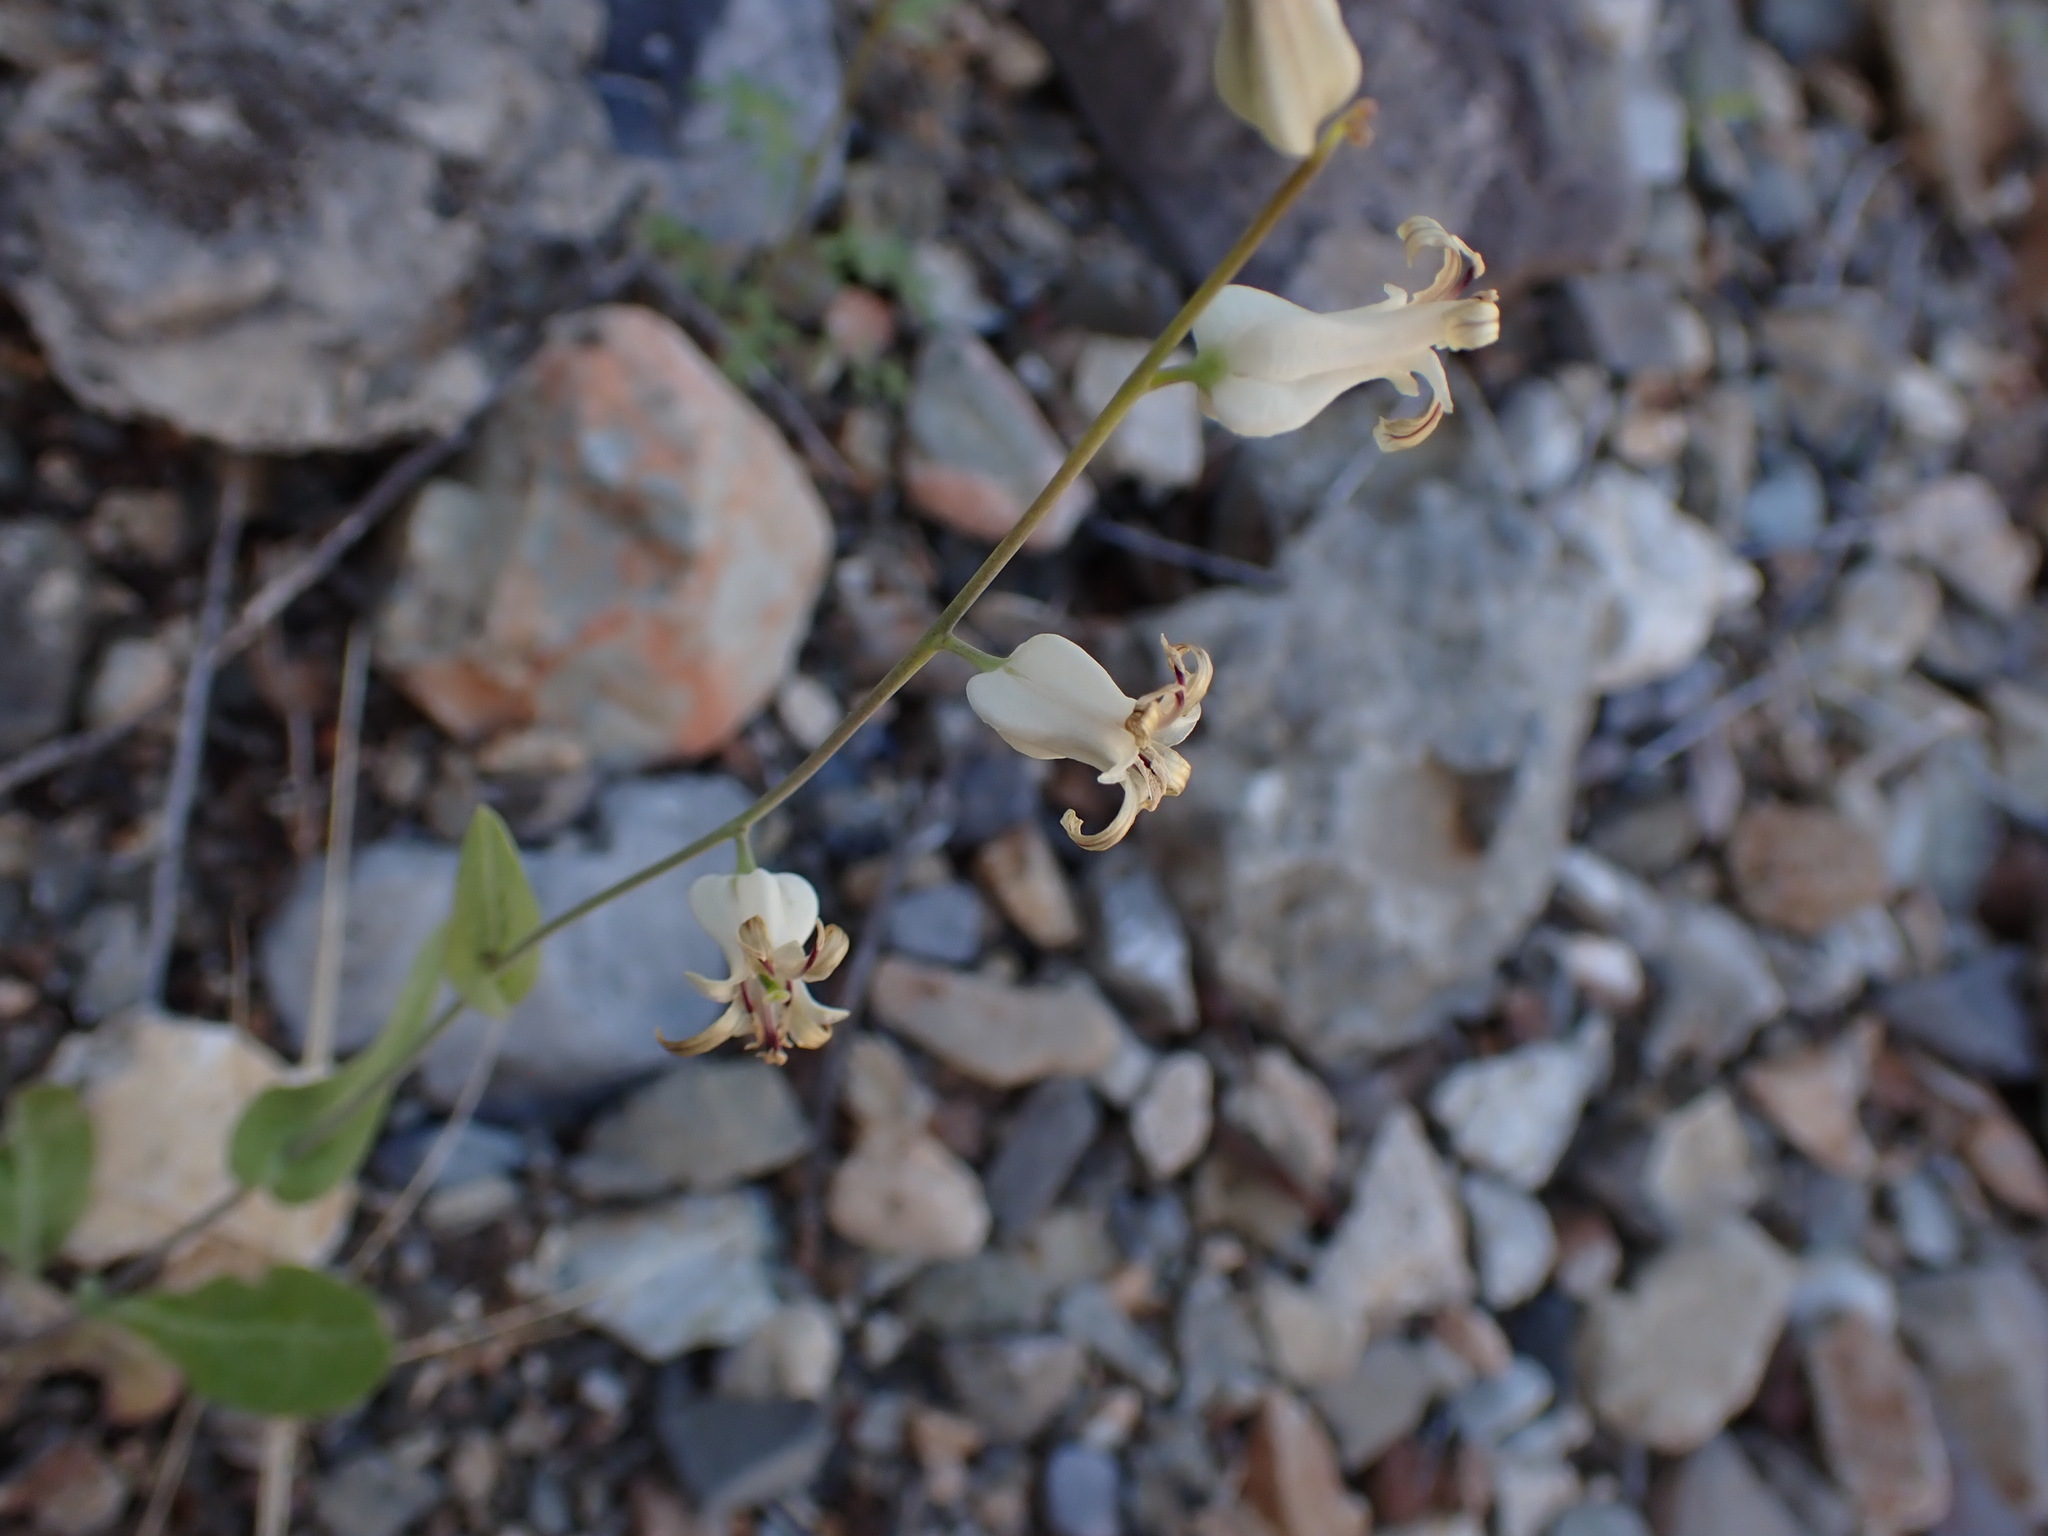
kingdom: Plantae
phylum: Tracheophyta
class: Magnoliopsida
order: Brassicales
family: Brassicaceae
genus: Streptanthus
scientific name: Streptanthus carinatus
